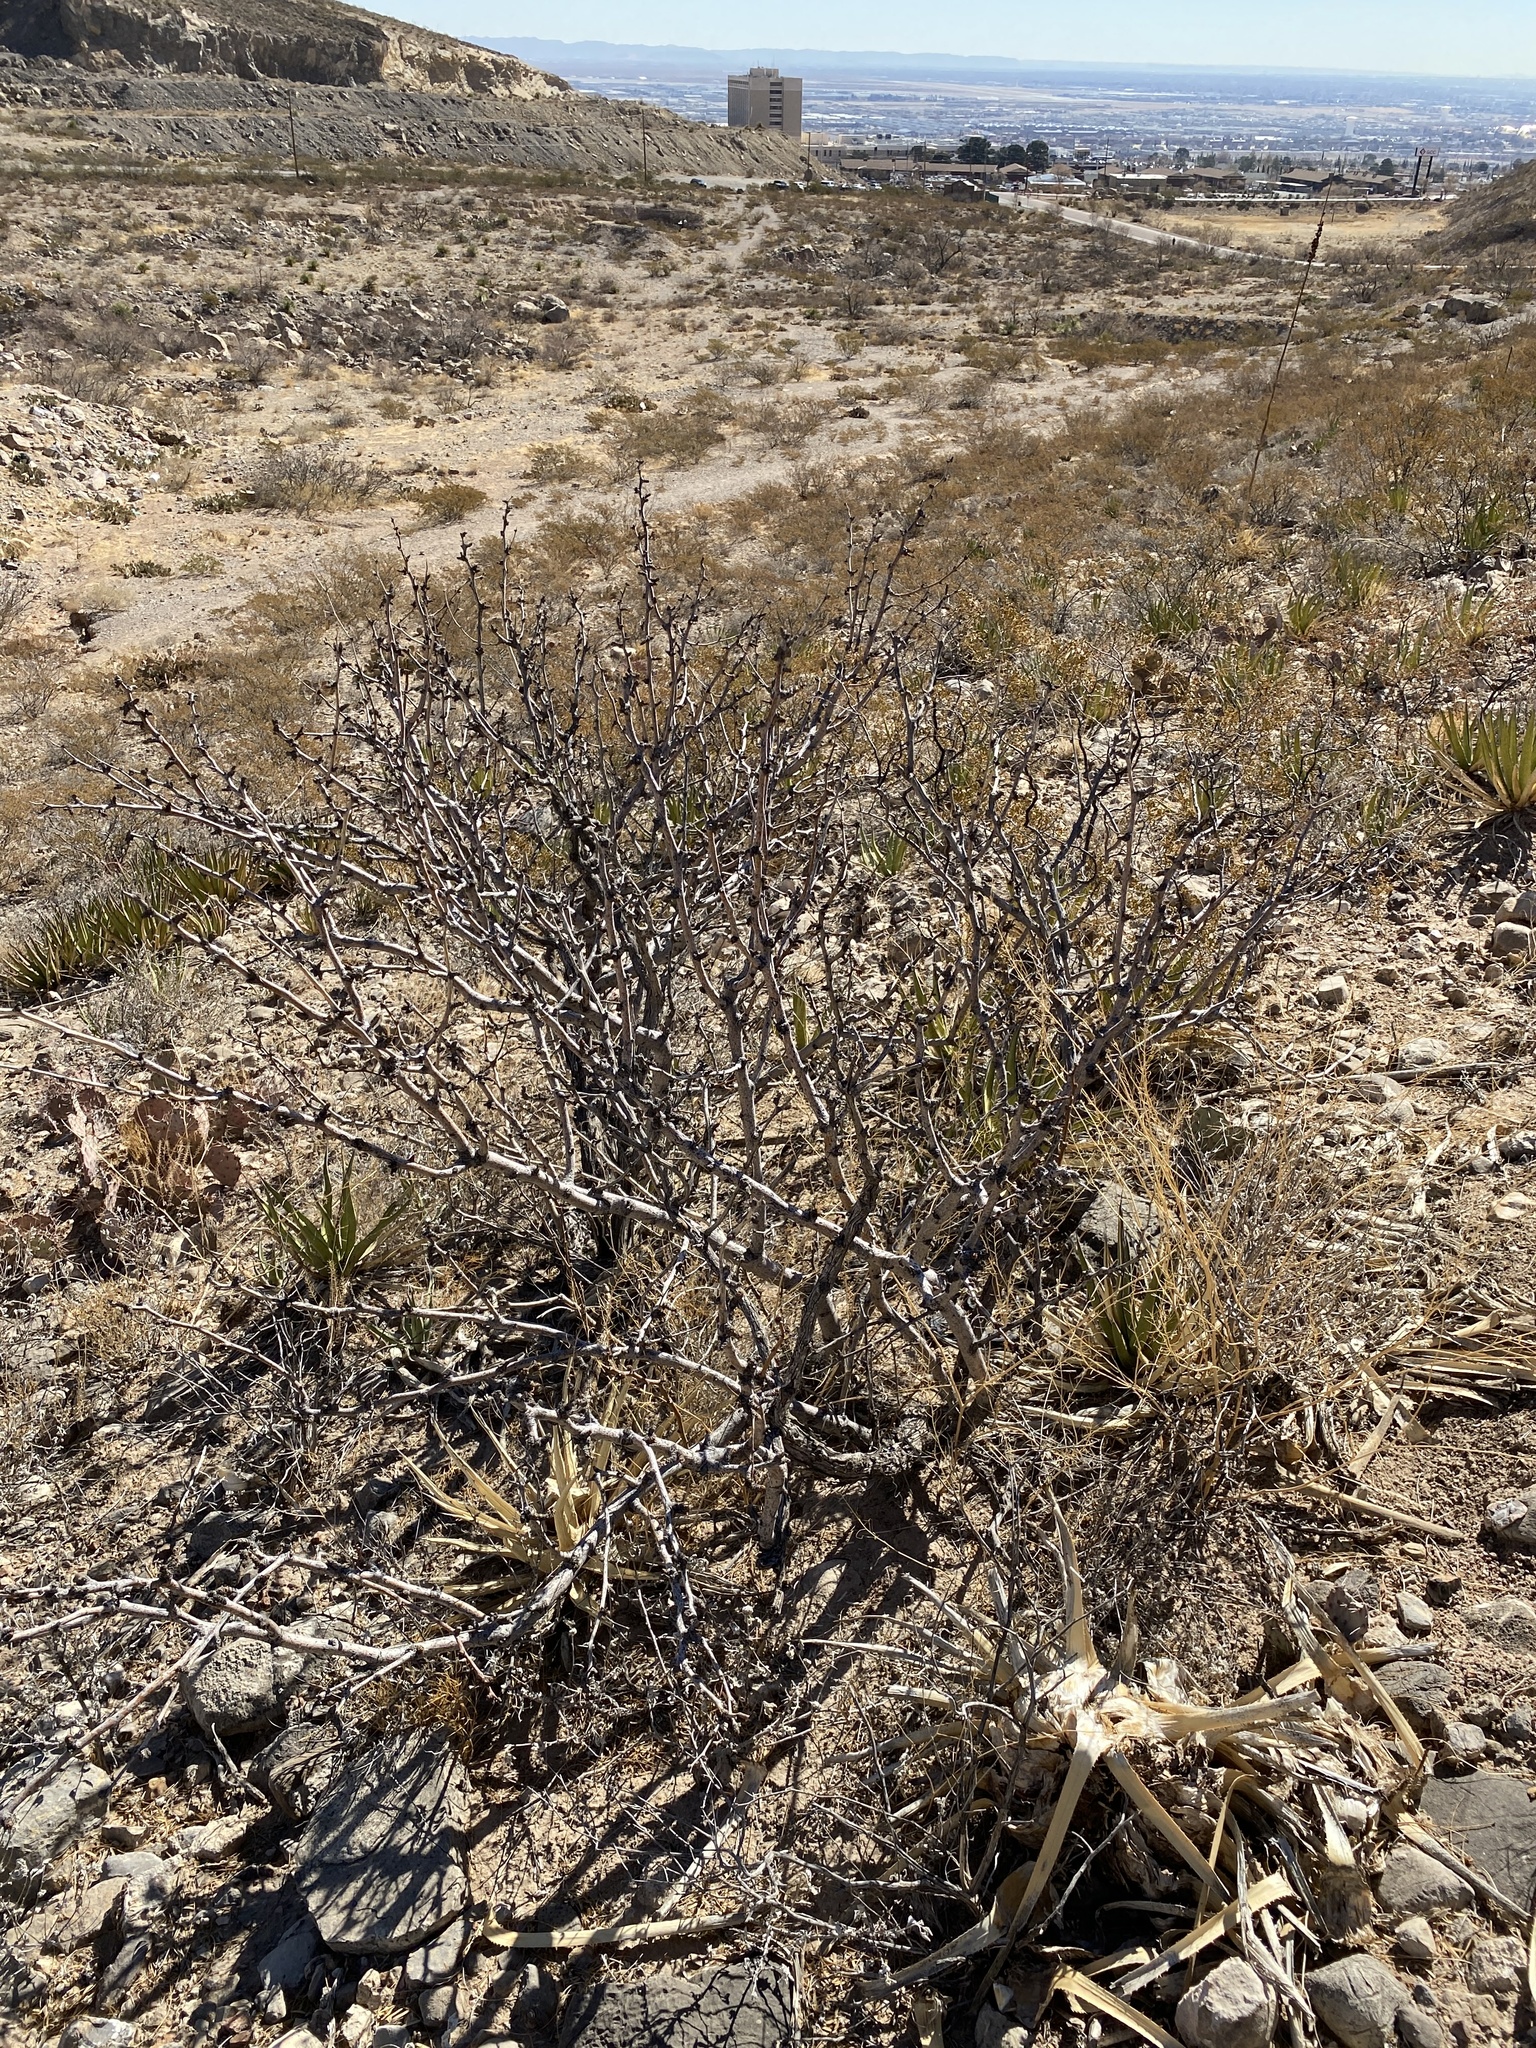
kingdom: Plantae
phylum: Tracheophyta
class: Magnoliopsida
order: Zygophyllales
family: Zygophyllaceae
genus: Larrea
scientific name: Larrea tridentata
